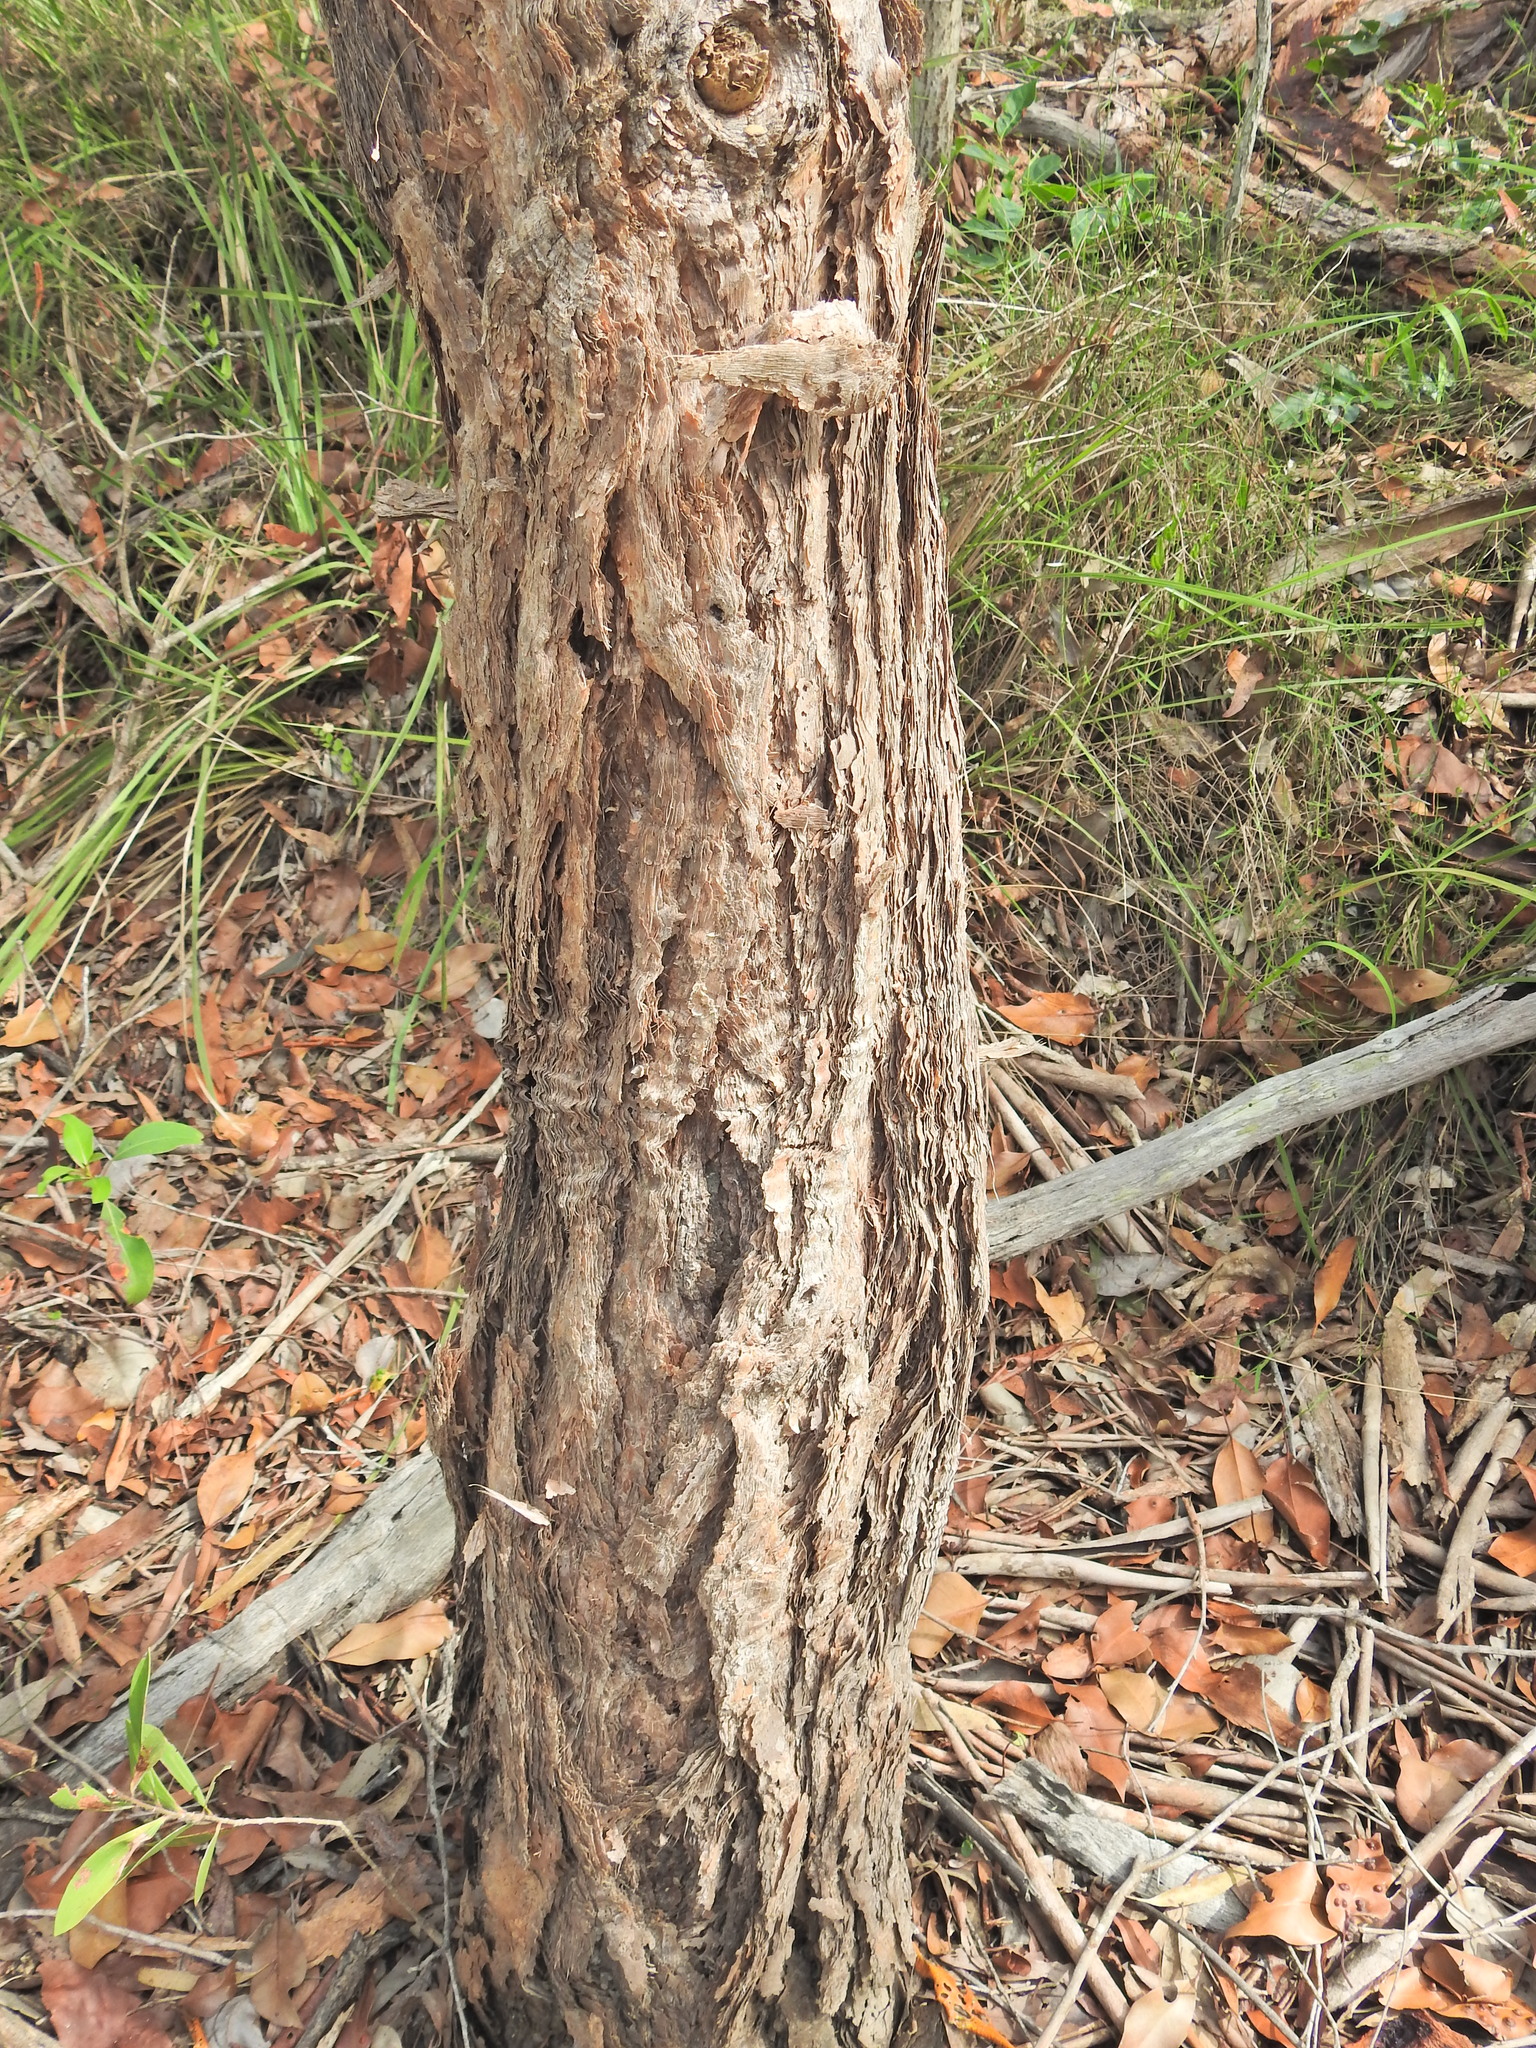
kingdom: Plantae
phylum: Tracheophyta
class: Magnoliopsida
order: Myrtales
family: Myrtaceae
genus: Lophostemon
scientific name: Lophostemon suaveolens
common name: Paperbark-mahogany
